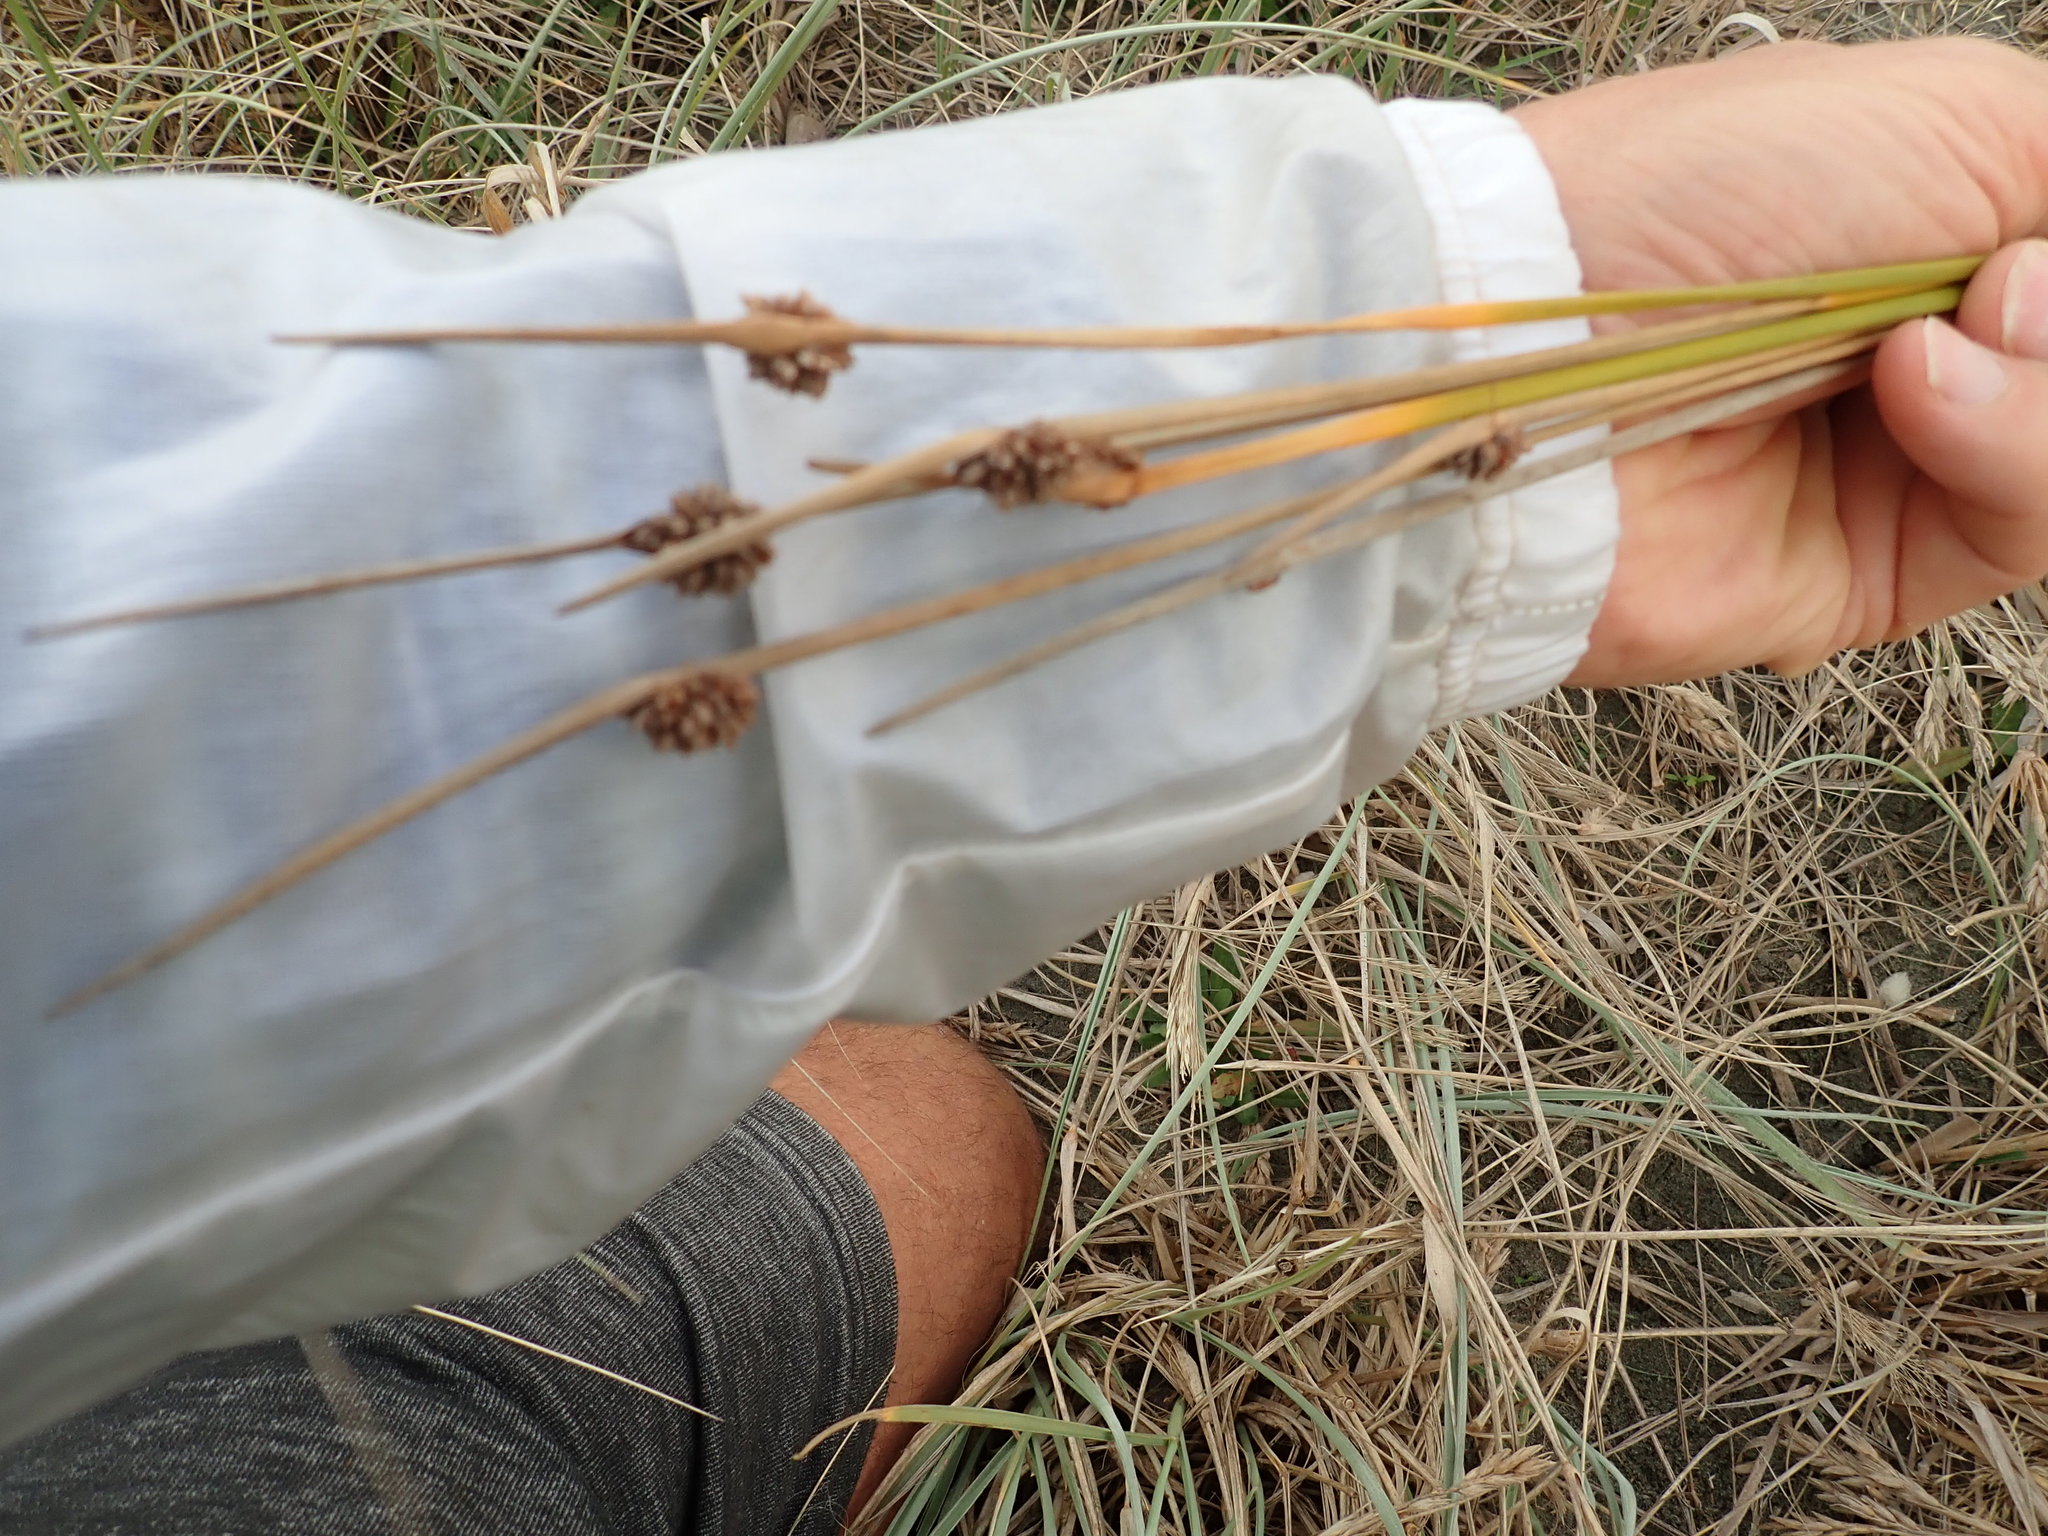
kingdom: Plantae
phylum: Tracheophyta
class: Liliopsida
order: Poales
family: Cyperaceae
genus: Ficinia
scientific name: Ficinia nodosa
